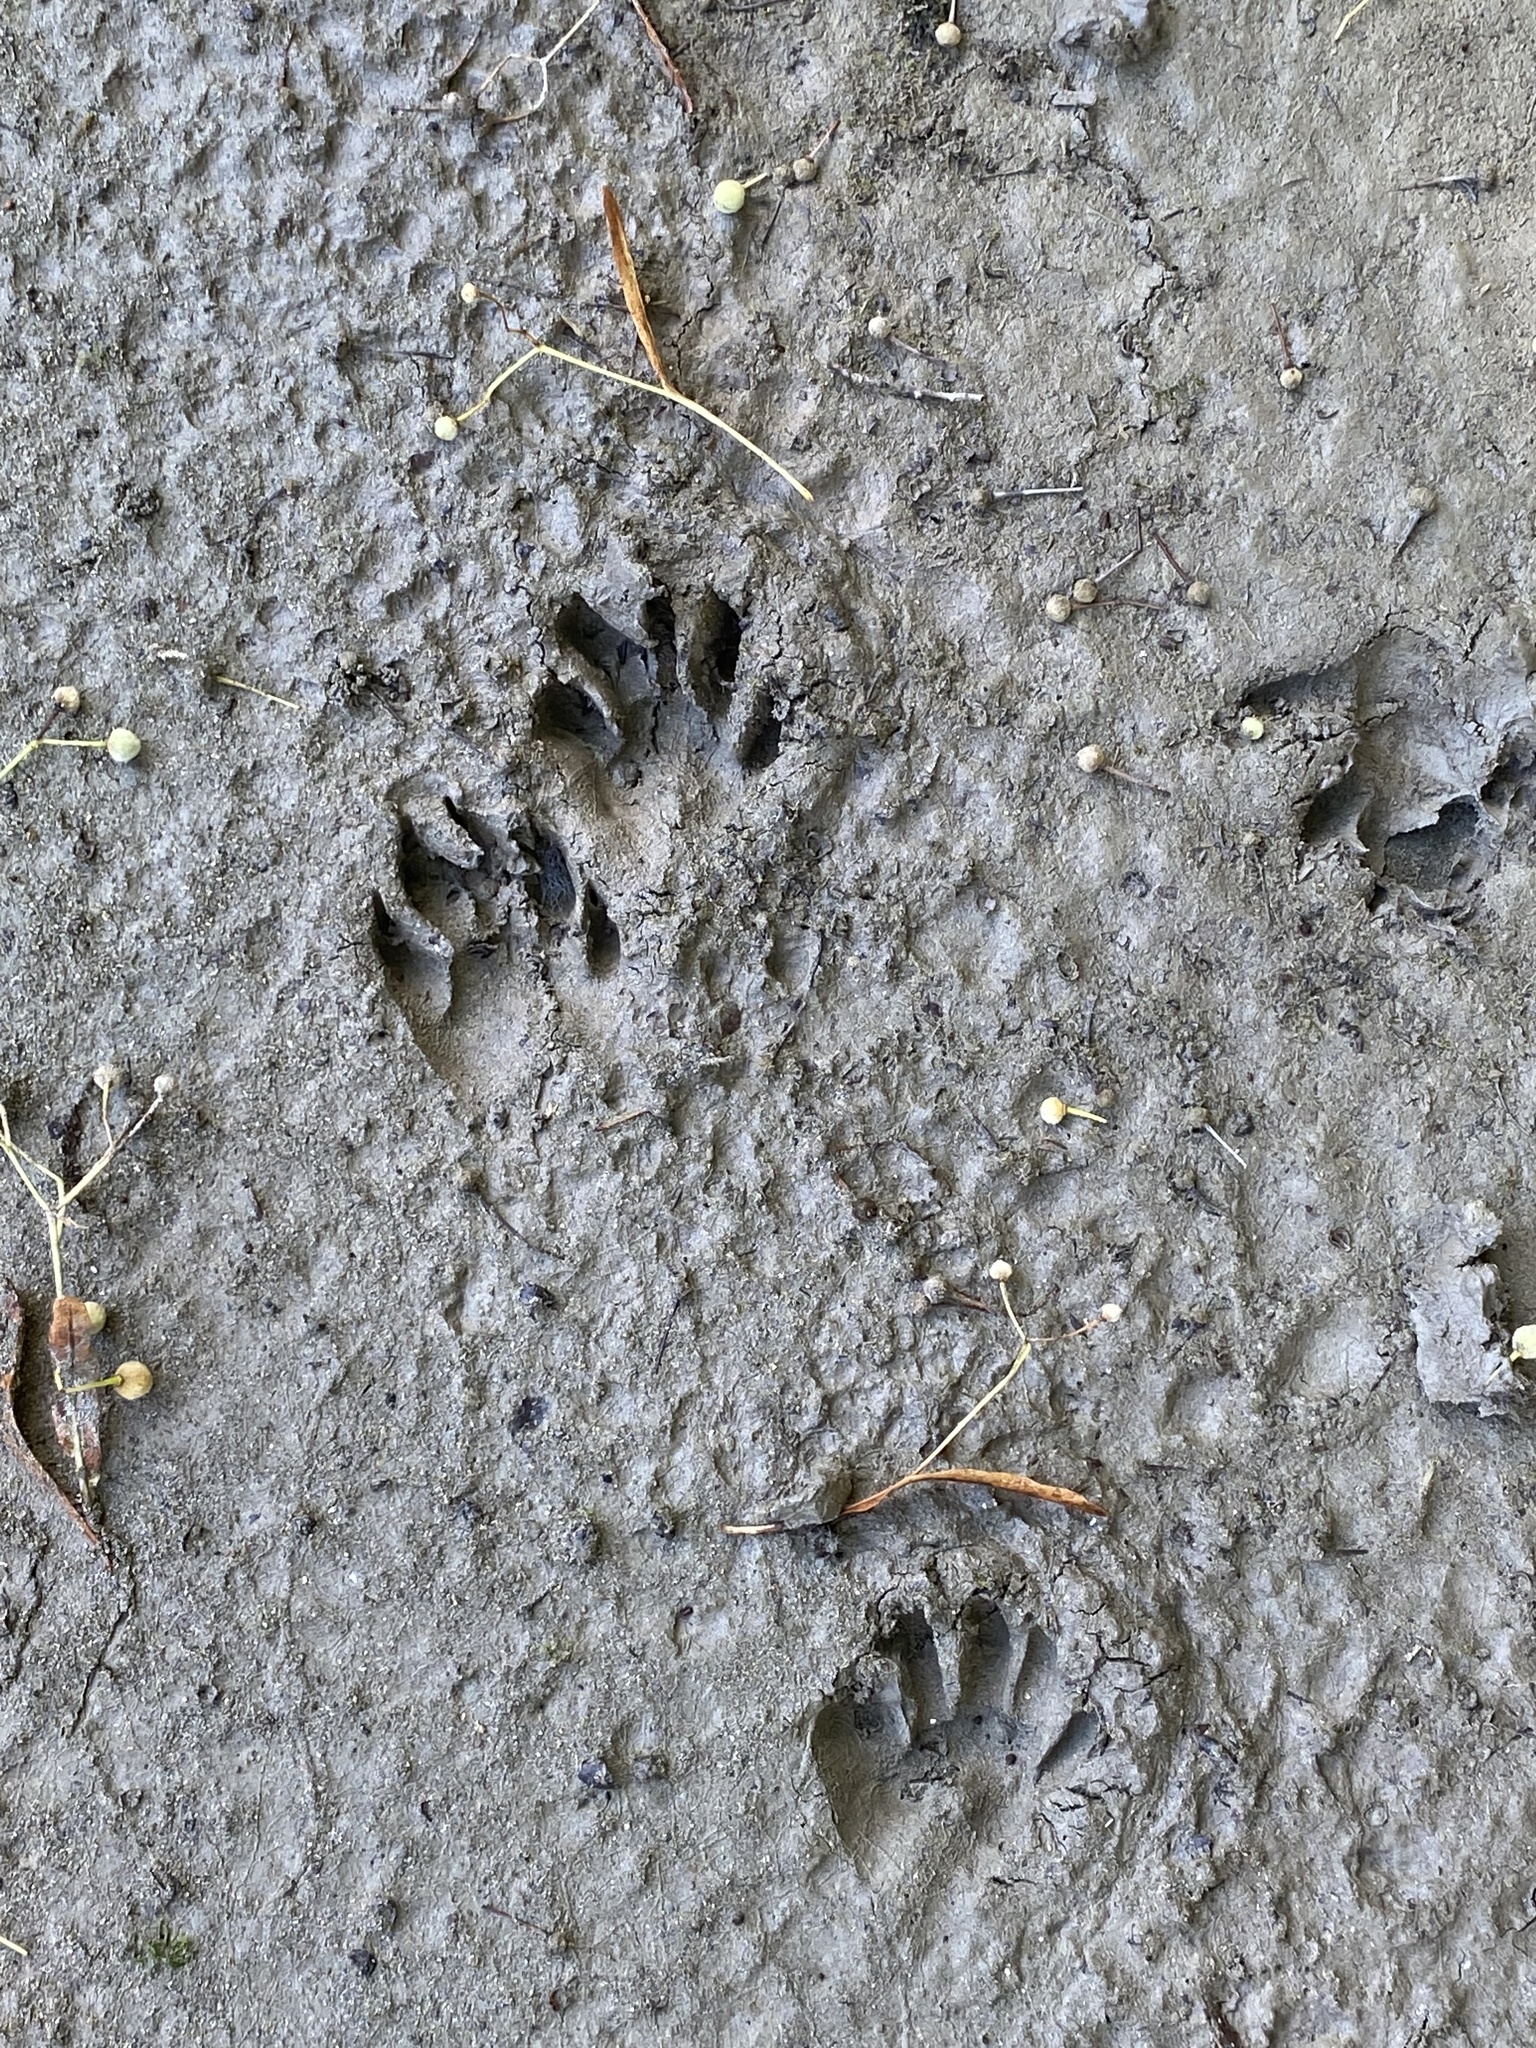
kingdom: Animalia
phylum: Chordata
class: Mammalia
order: Carnivora
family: Procyonidae
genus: Procyon
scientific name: Procyon lotor
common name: Raccoon
